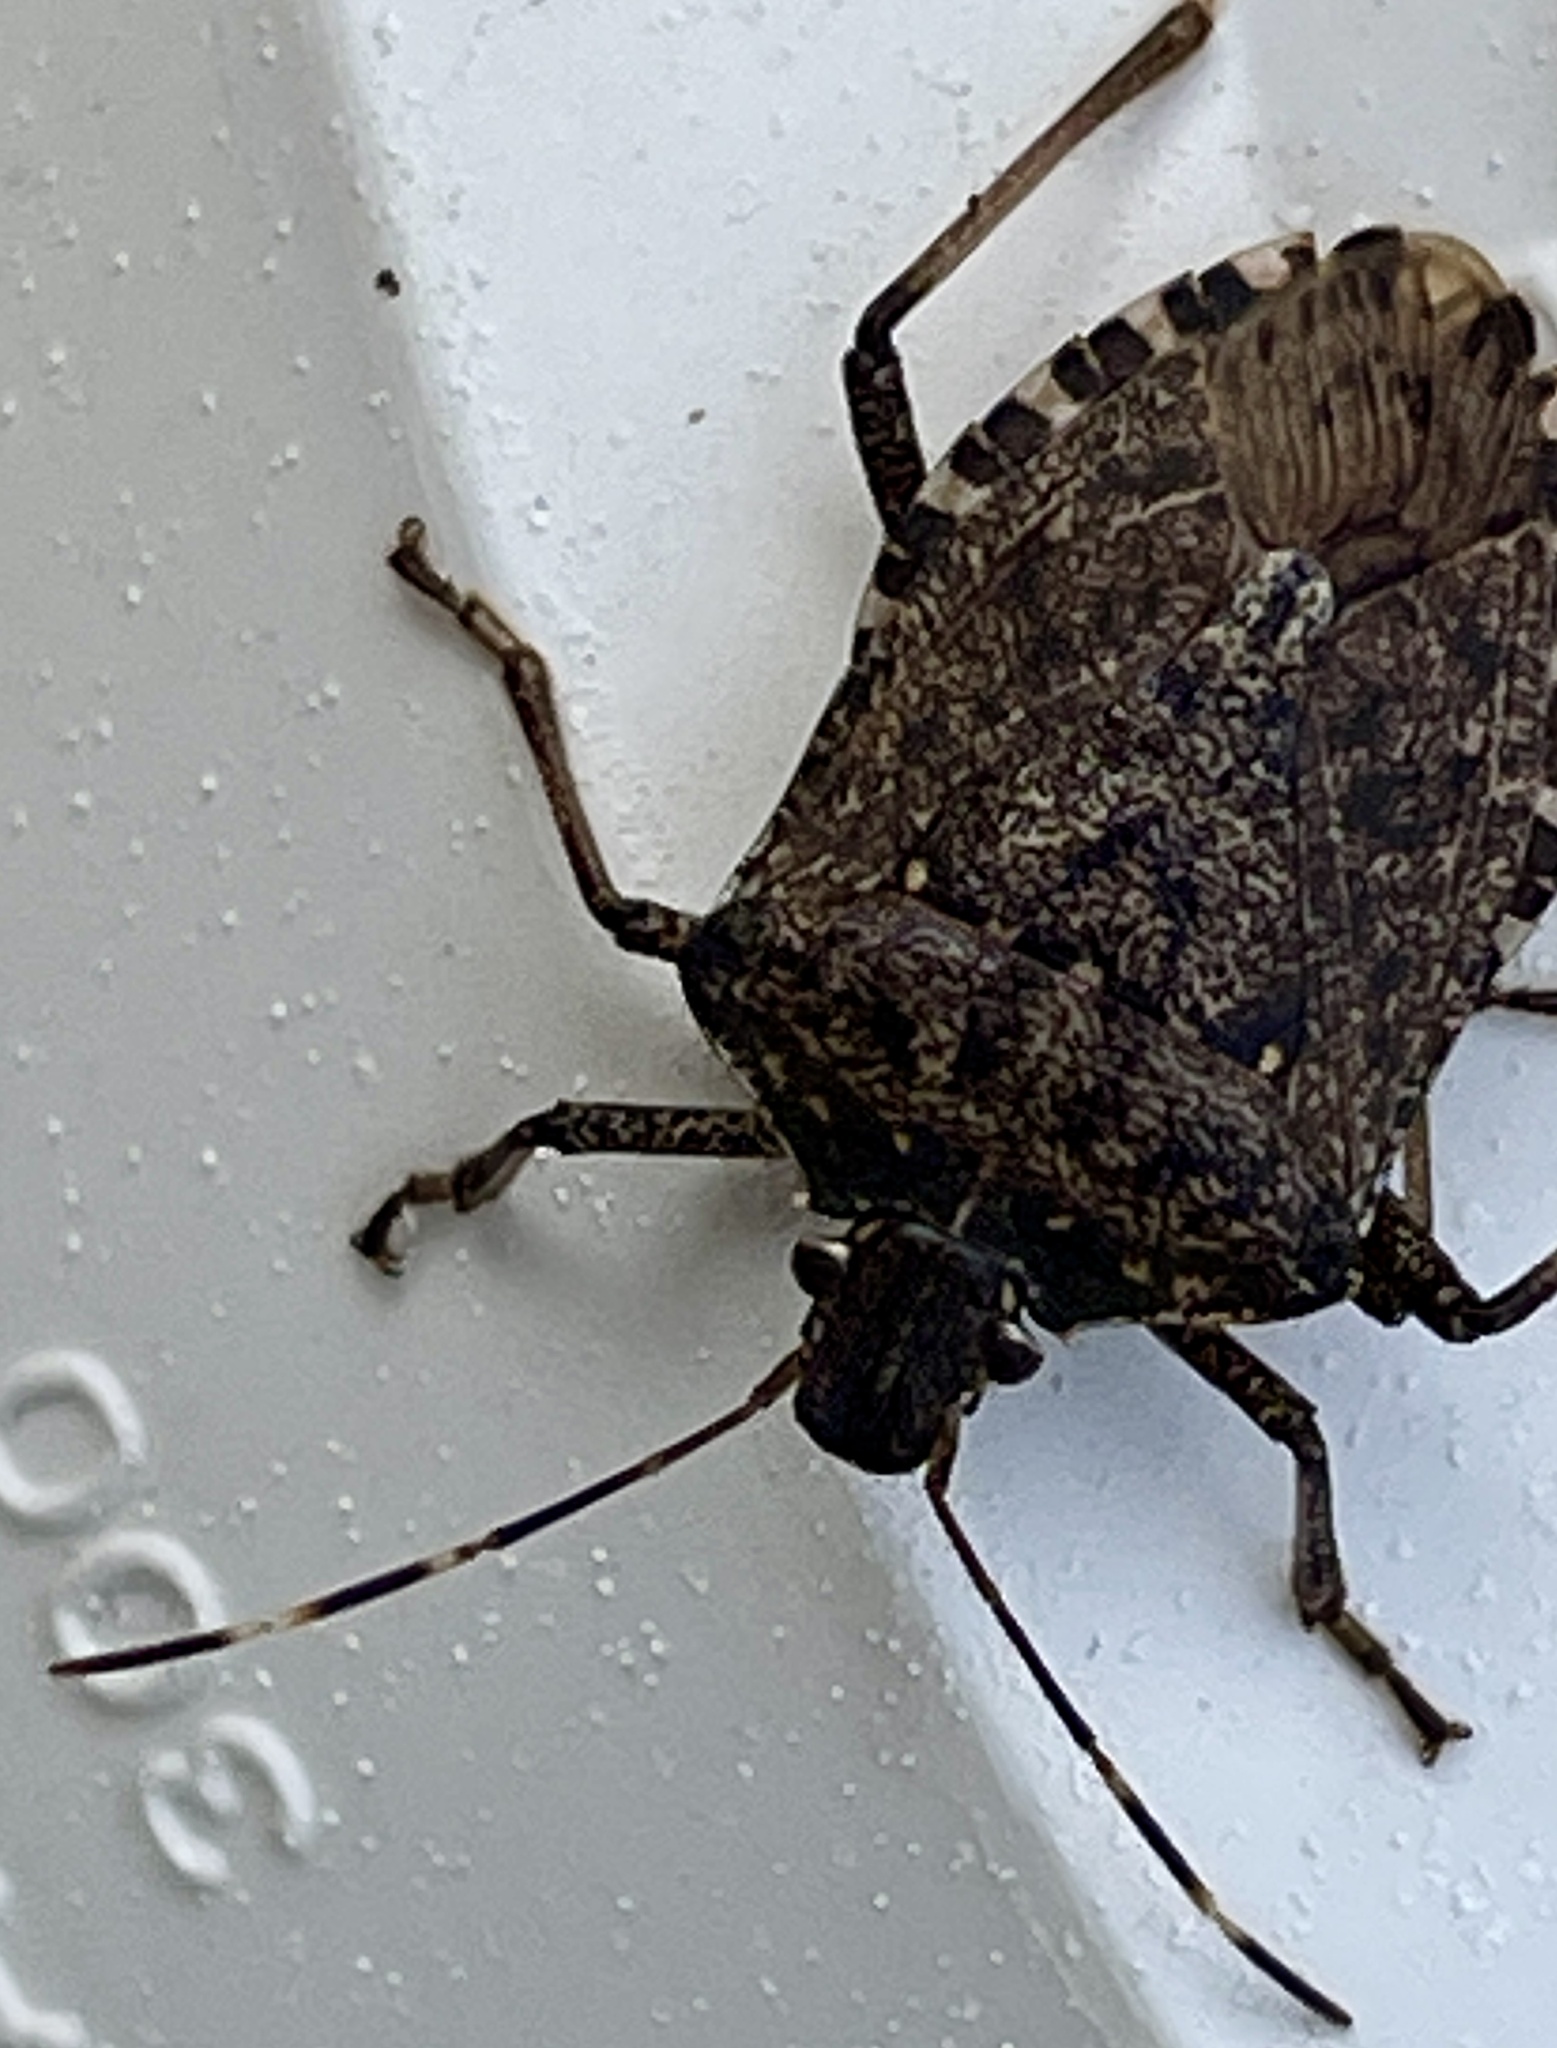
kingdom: Animalia
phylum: Arthropoda
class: Insecta
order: Hemiptera
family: Pentatomidae
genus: Halyomorpha
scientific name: Halyomorpha halys
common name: Brown marmorated stink bug
